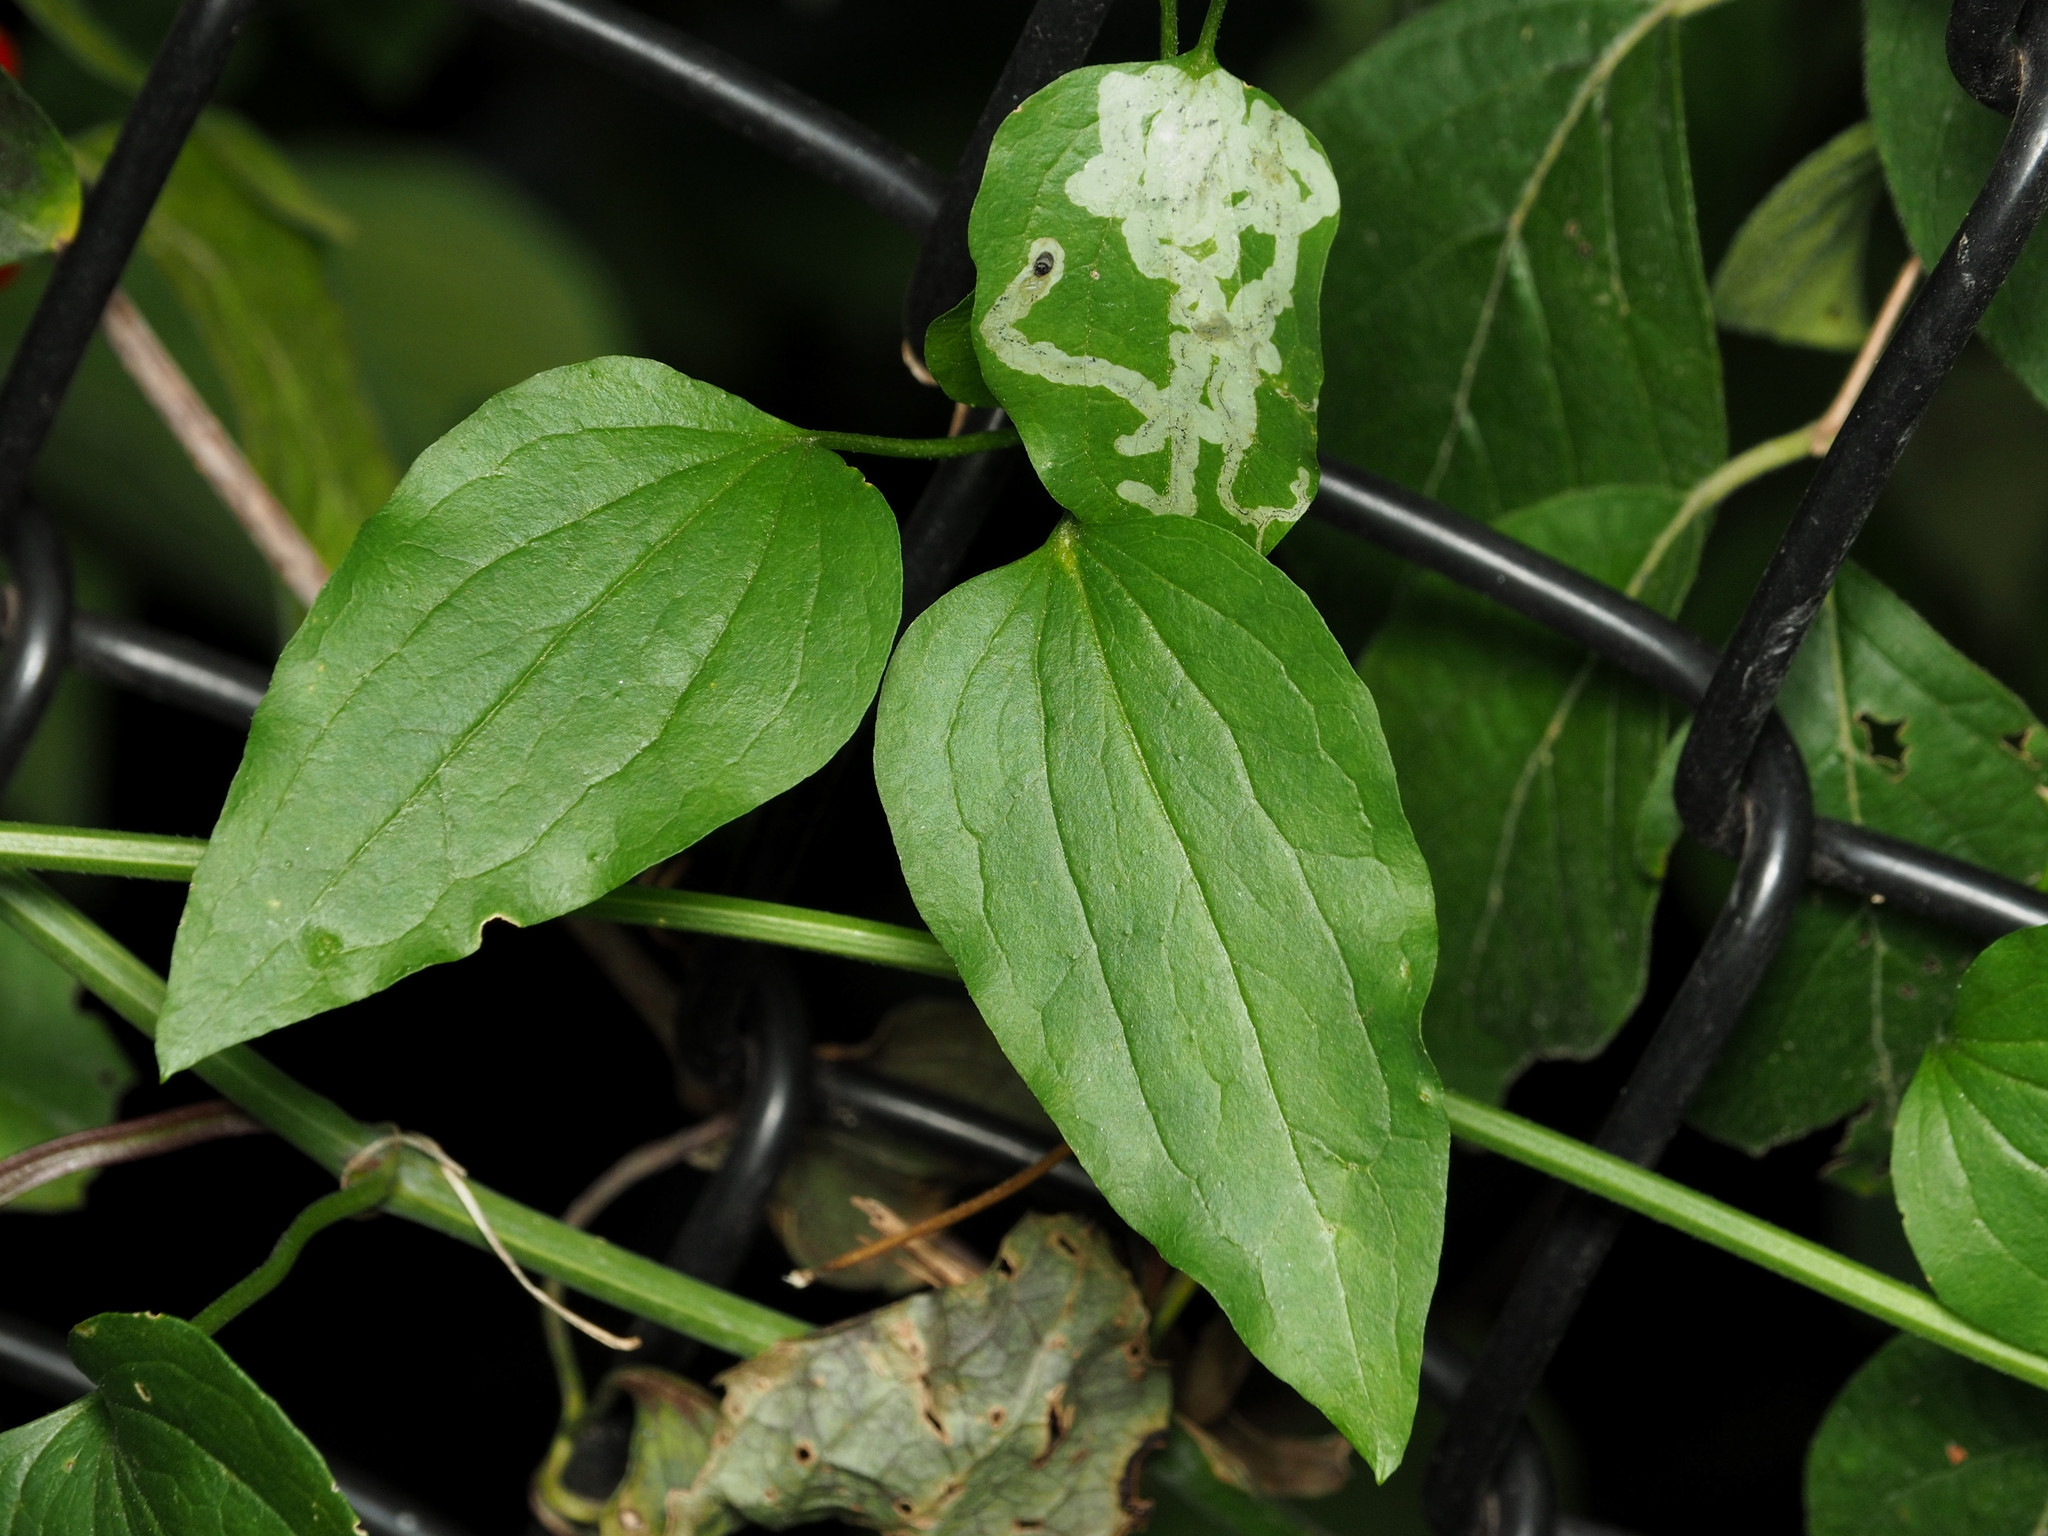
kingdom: Animalia
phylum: Arthropoda
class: Insecta
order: Diptera
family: Agromyzidae
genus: Phytomyza
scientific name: Phytomyza loewii
